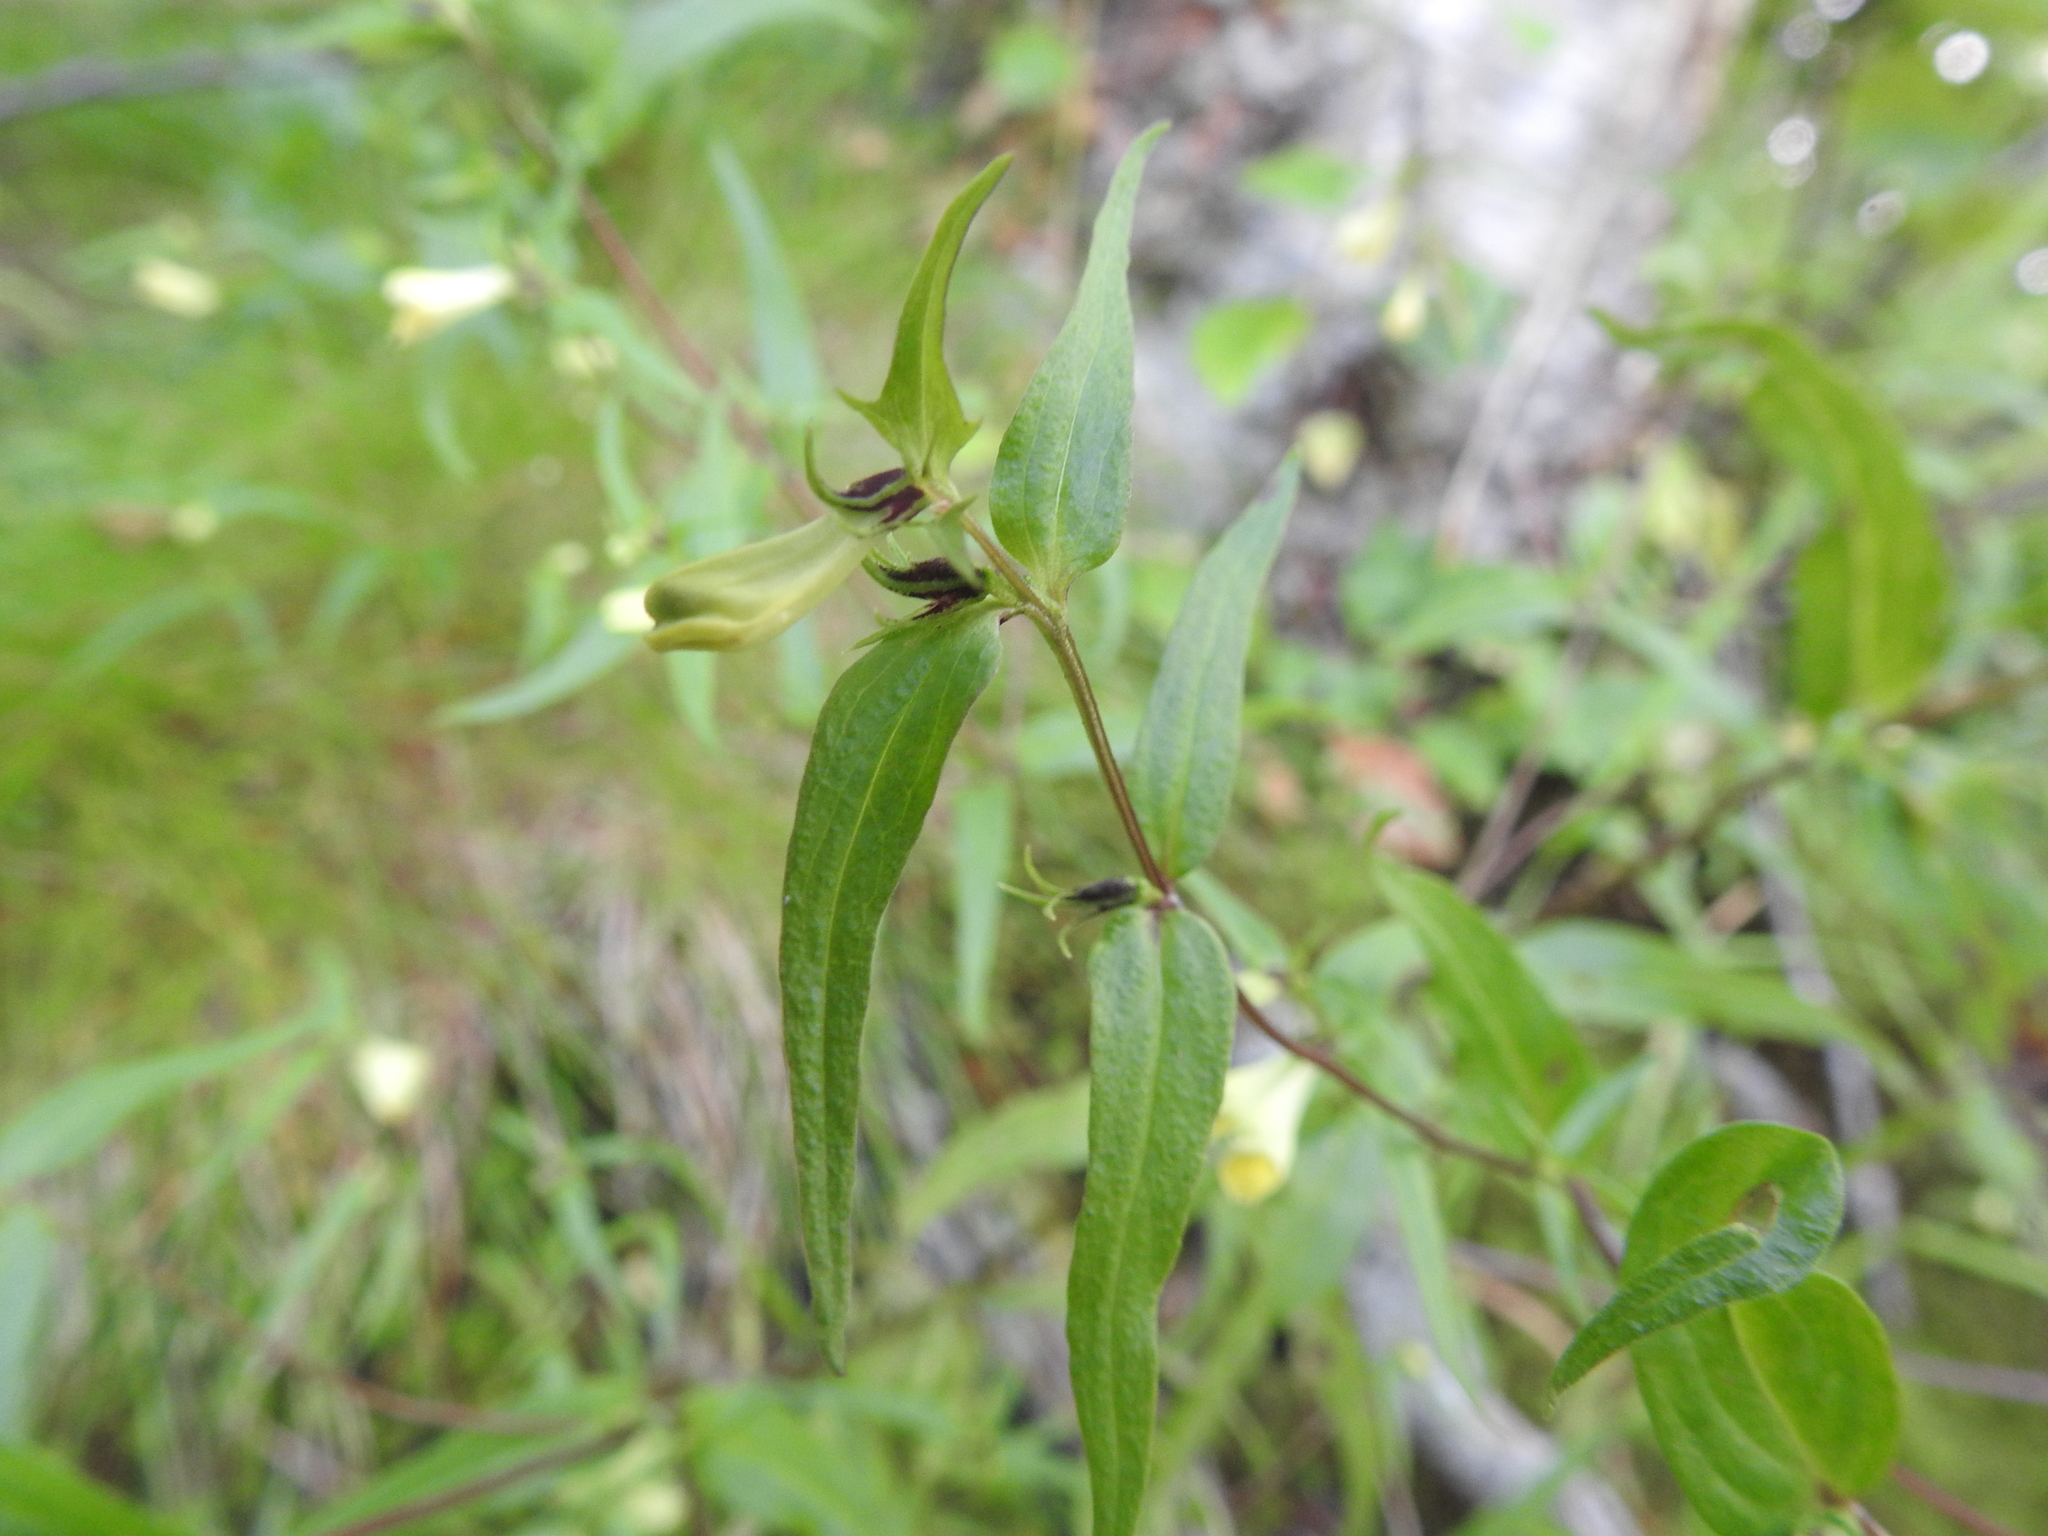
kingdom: Plantae
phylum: Tracheophyta
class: Magnoliopsida
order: Lamiales
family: Orobanchaceae
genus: Melampyrum
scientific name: Melampyrum pratense
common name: Common cow-wheat
